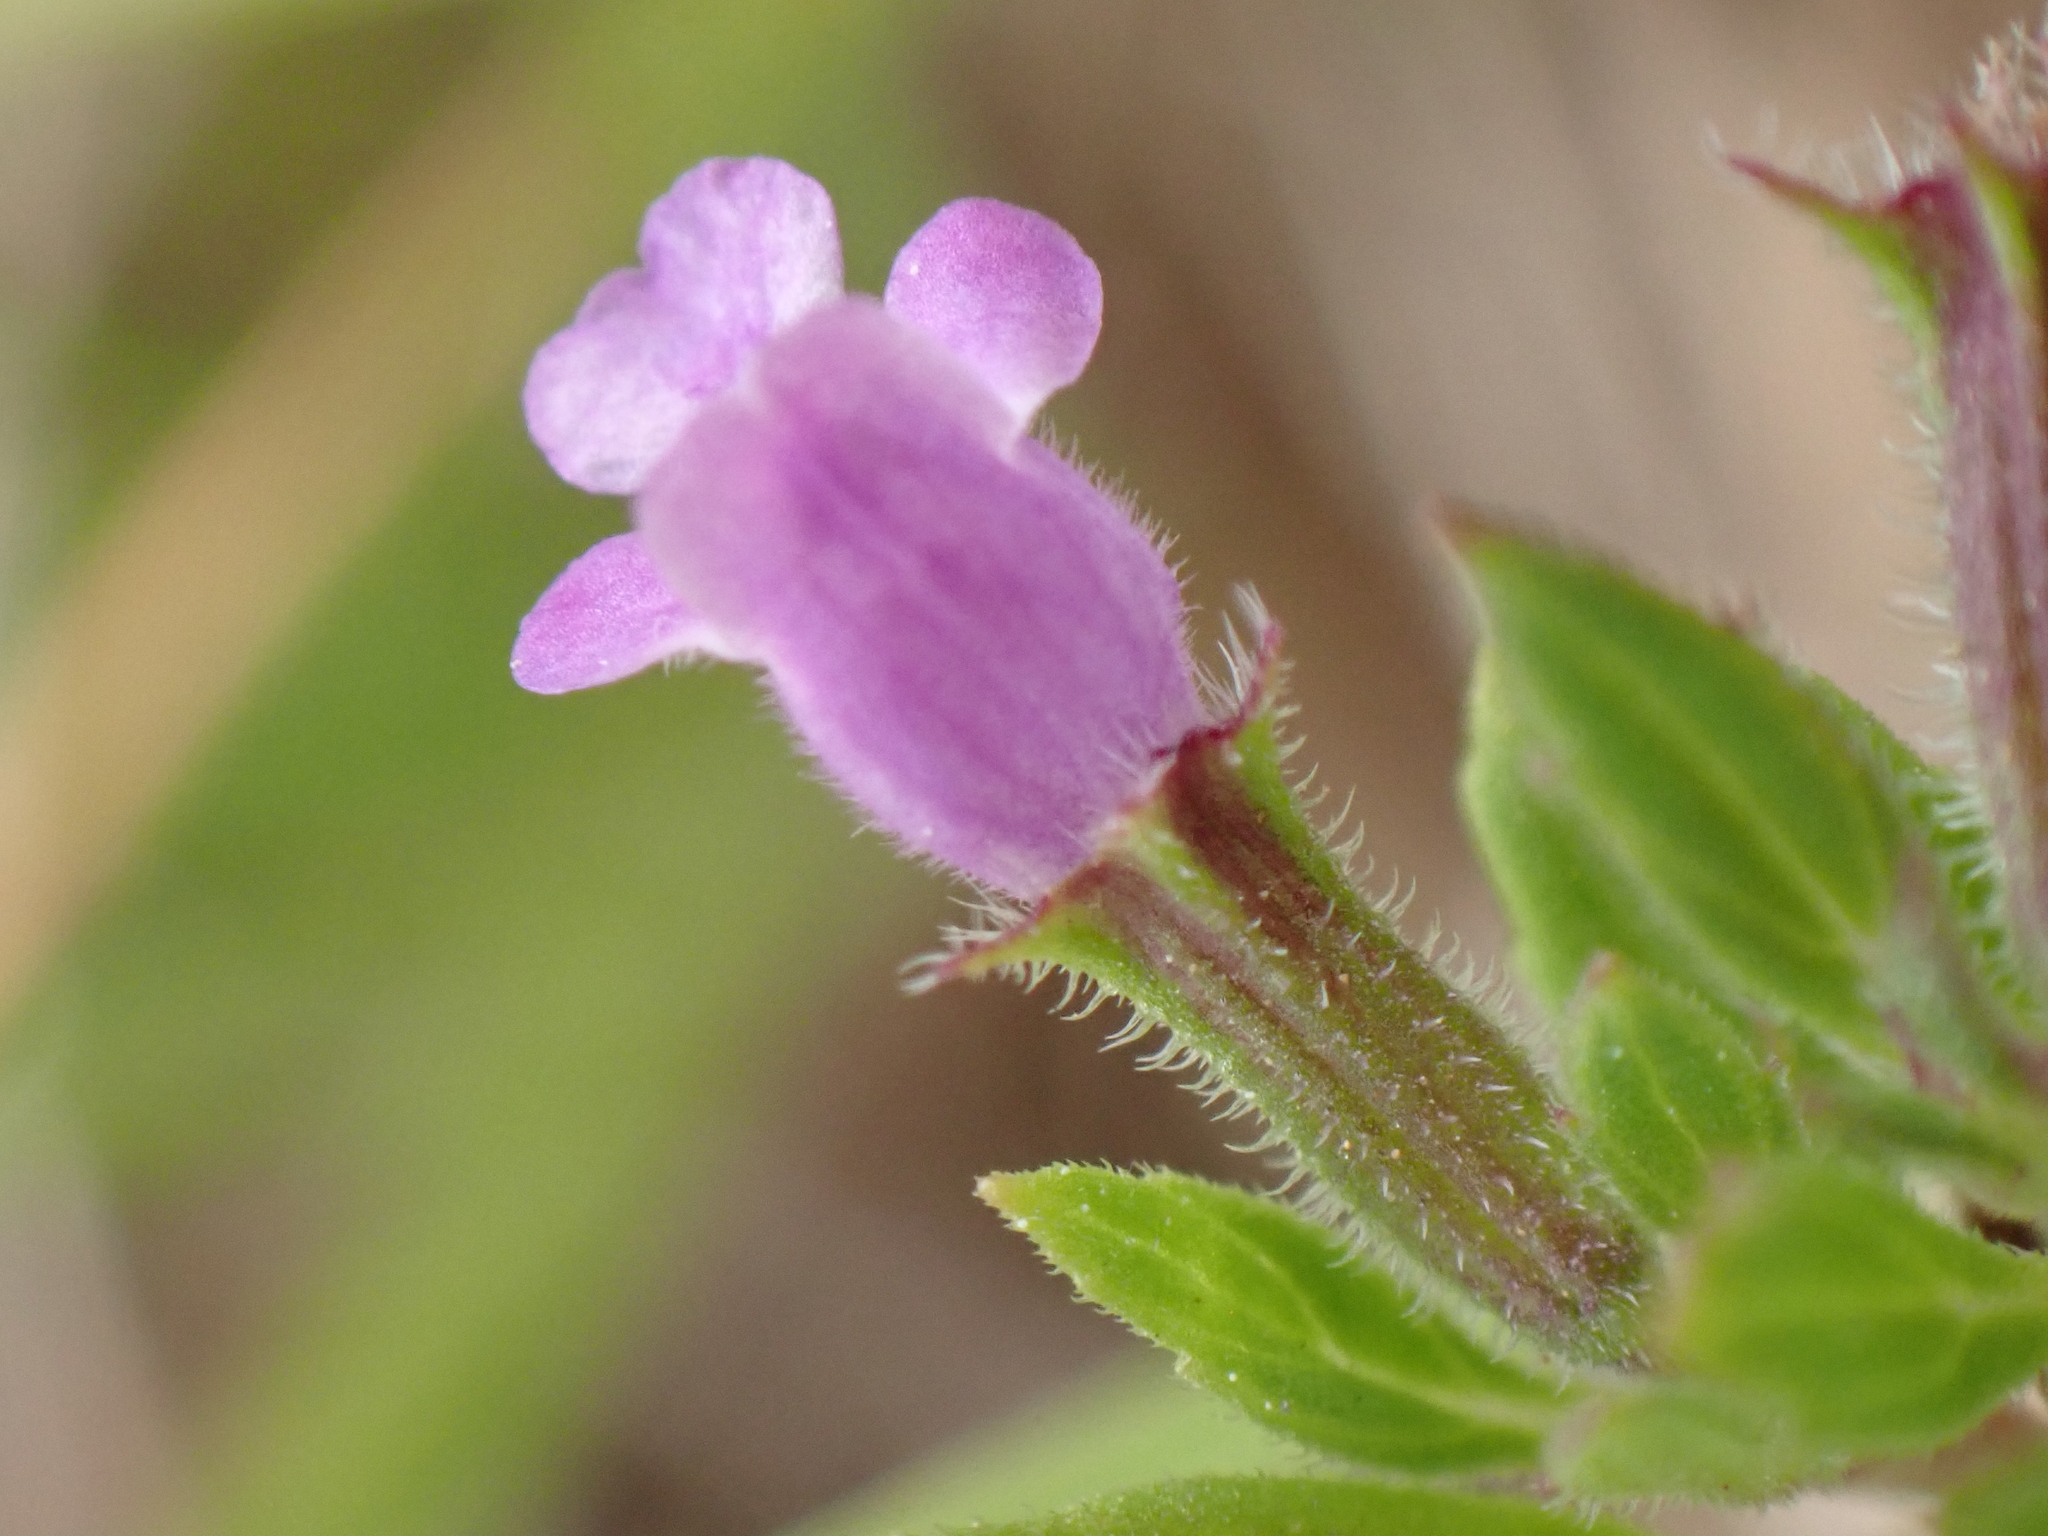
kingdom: Plantae
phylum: Tracheophyta
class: Magnoliopsida
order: Lamiales
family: Lamiaceae
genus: Clinopodium
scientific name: Clinopodium acinos
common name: Basil thyme
